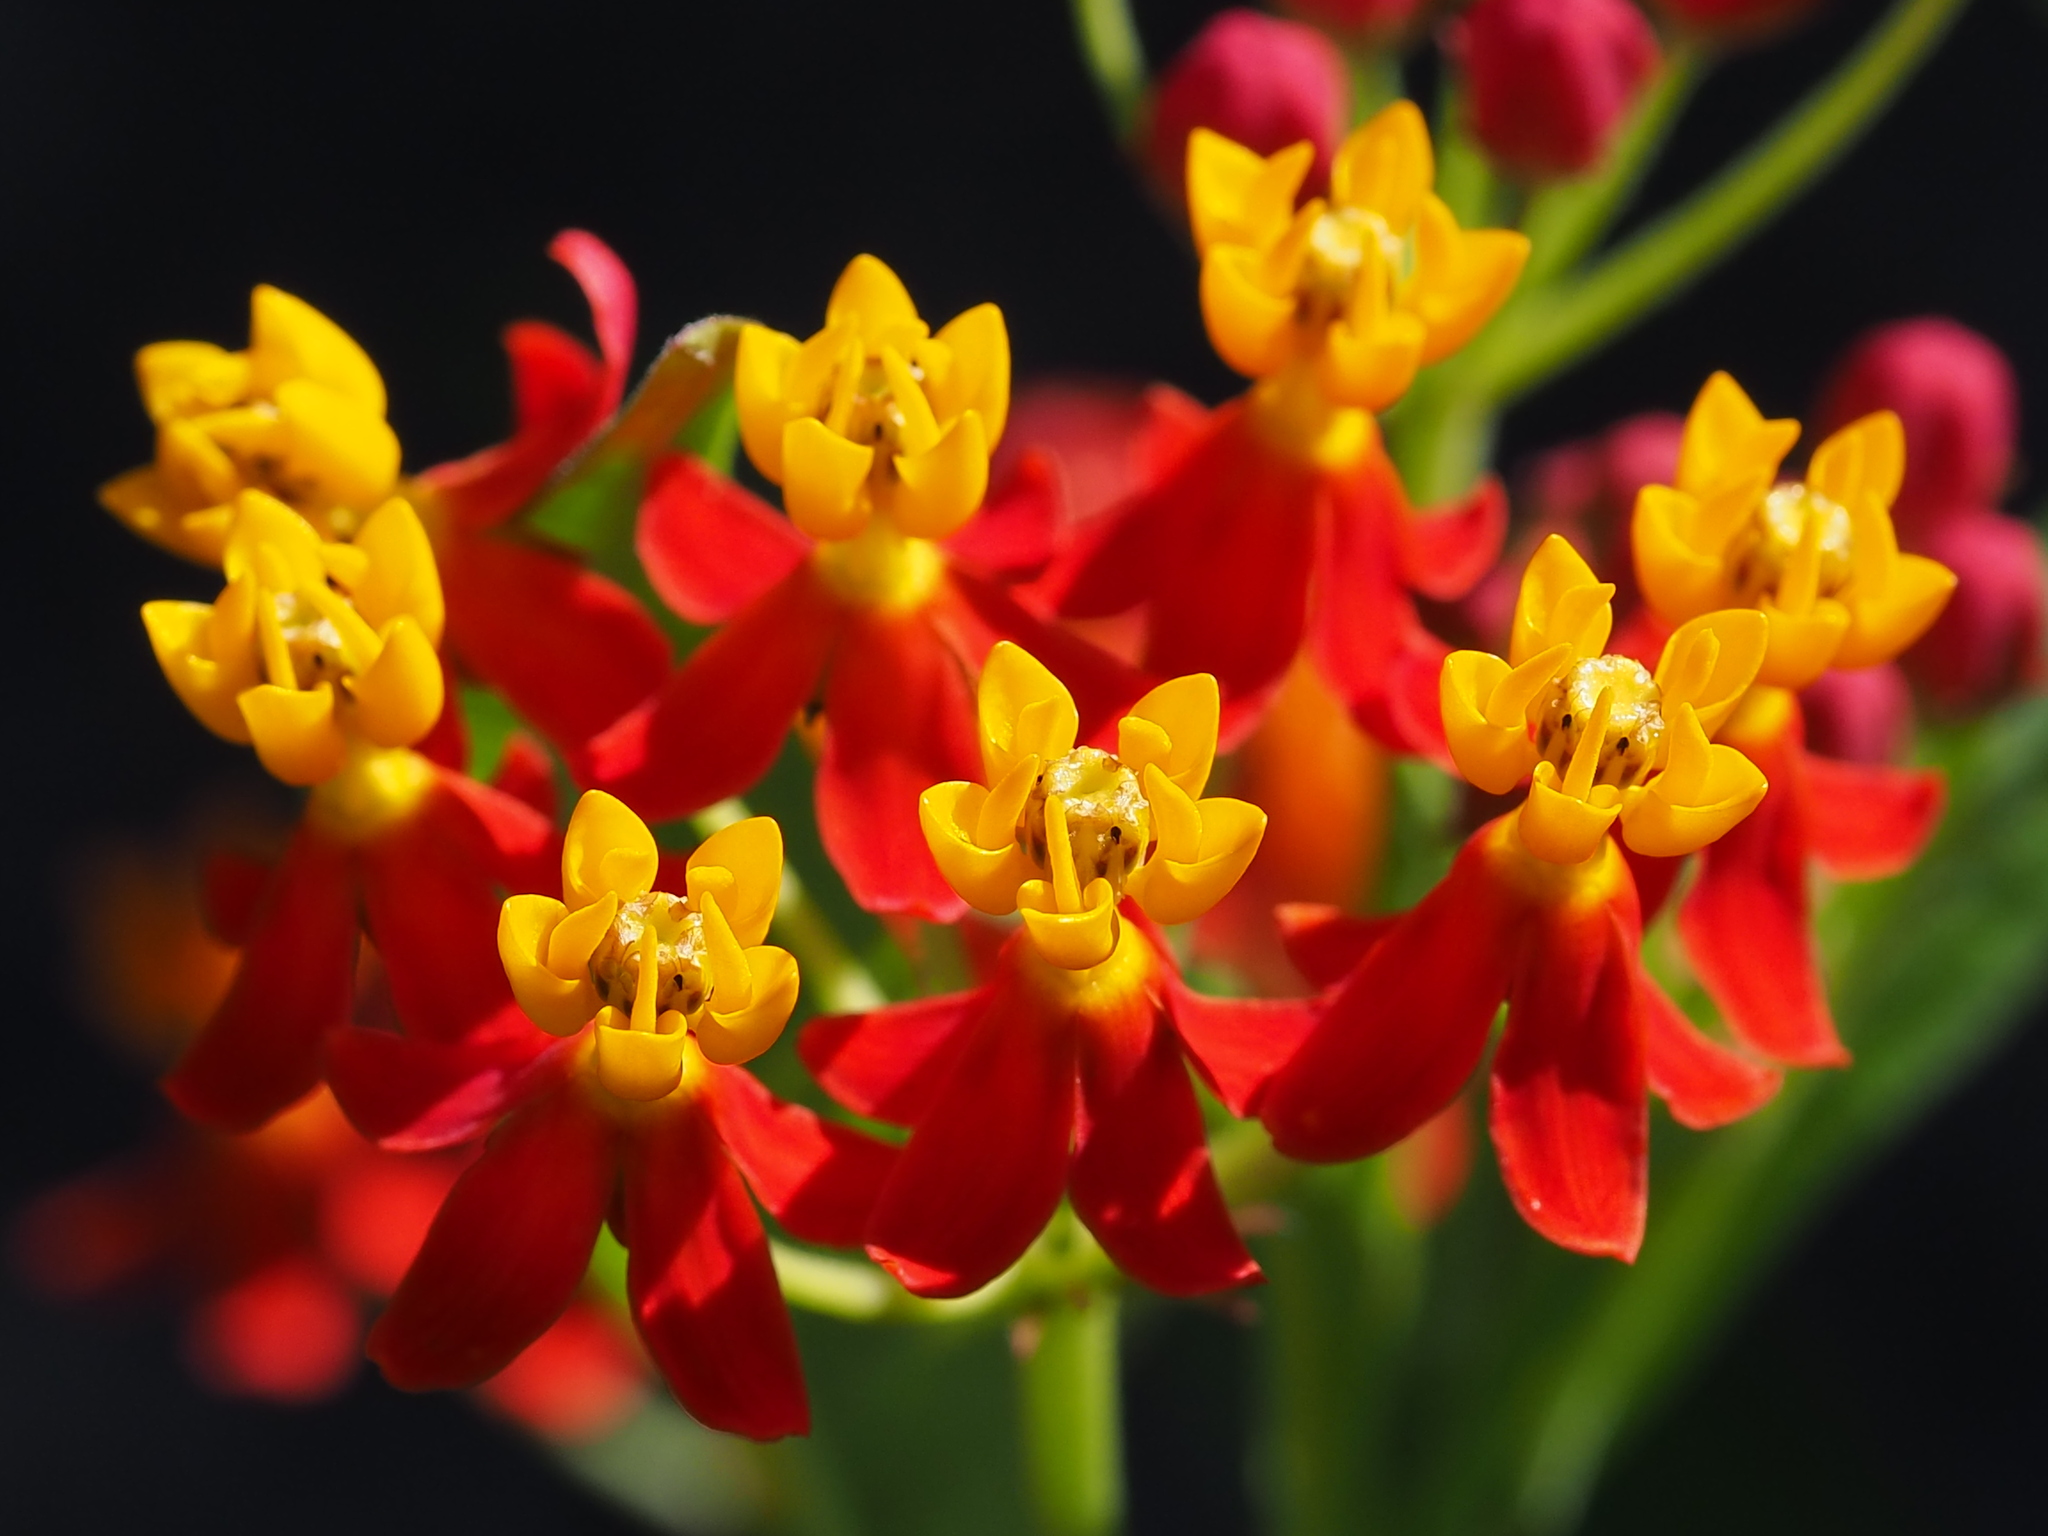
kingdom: Plantae
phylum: Tracheophyta
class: Magnoliopsida
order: Gentianales
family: Apocynaceae
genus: Asclepias
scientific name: Asclepias curassavica
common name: Bloodflower
